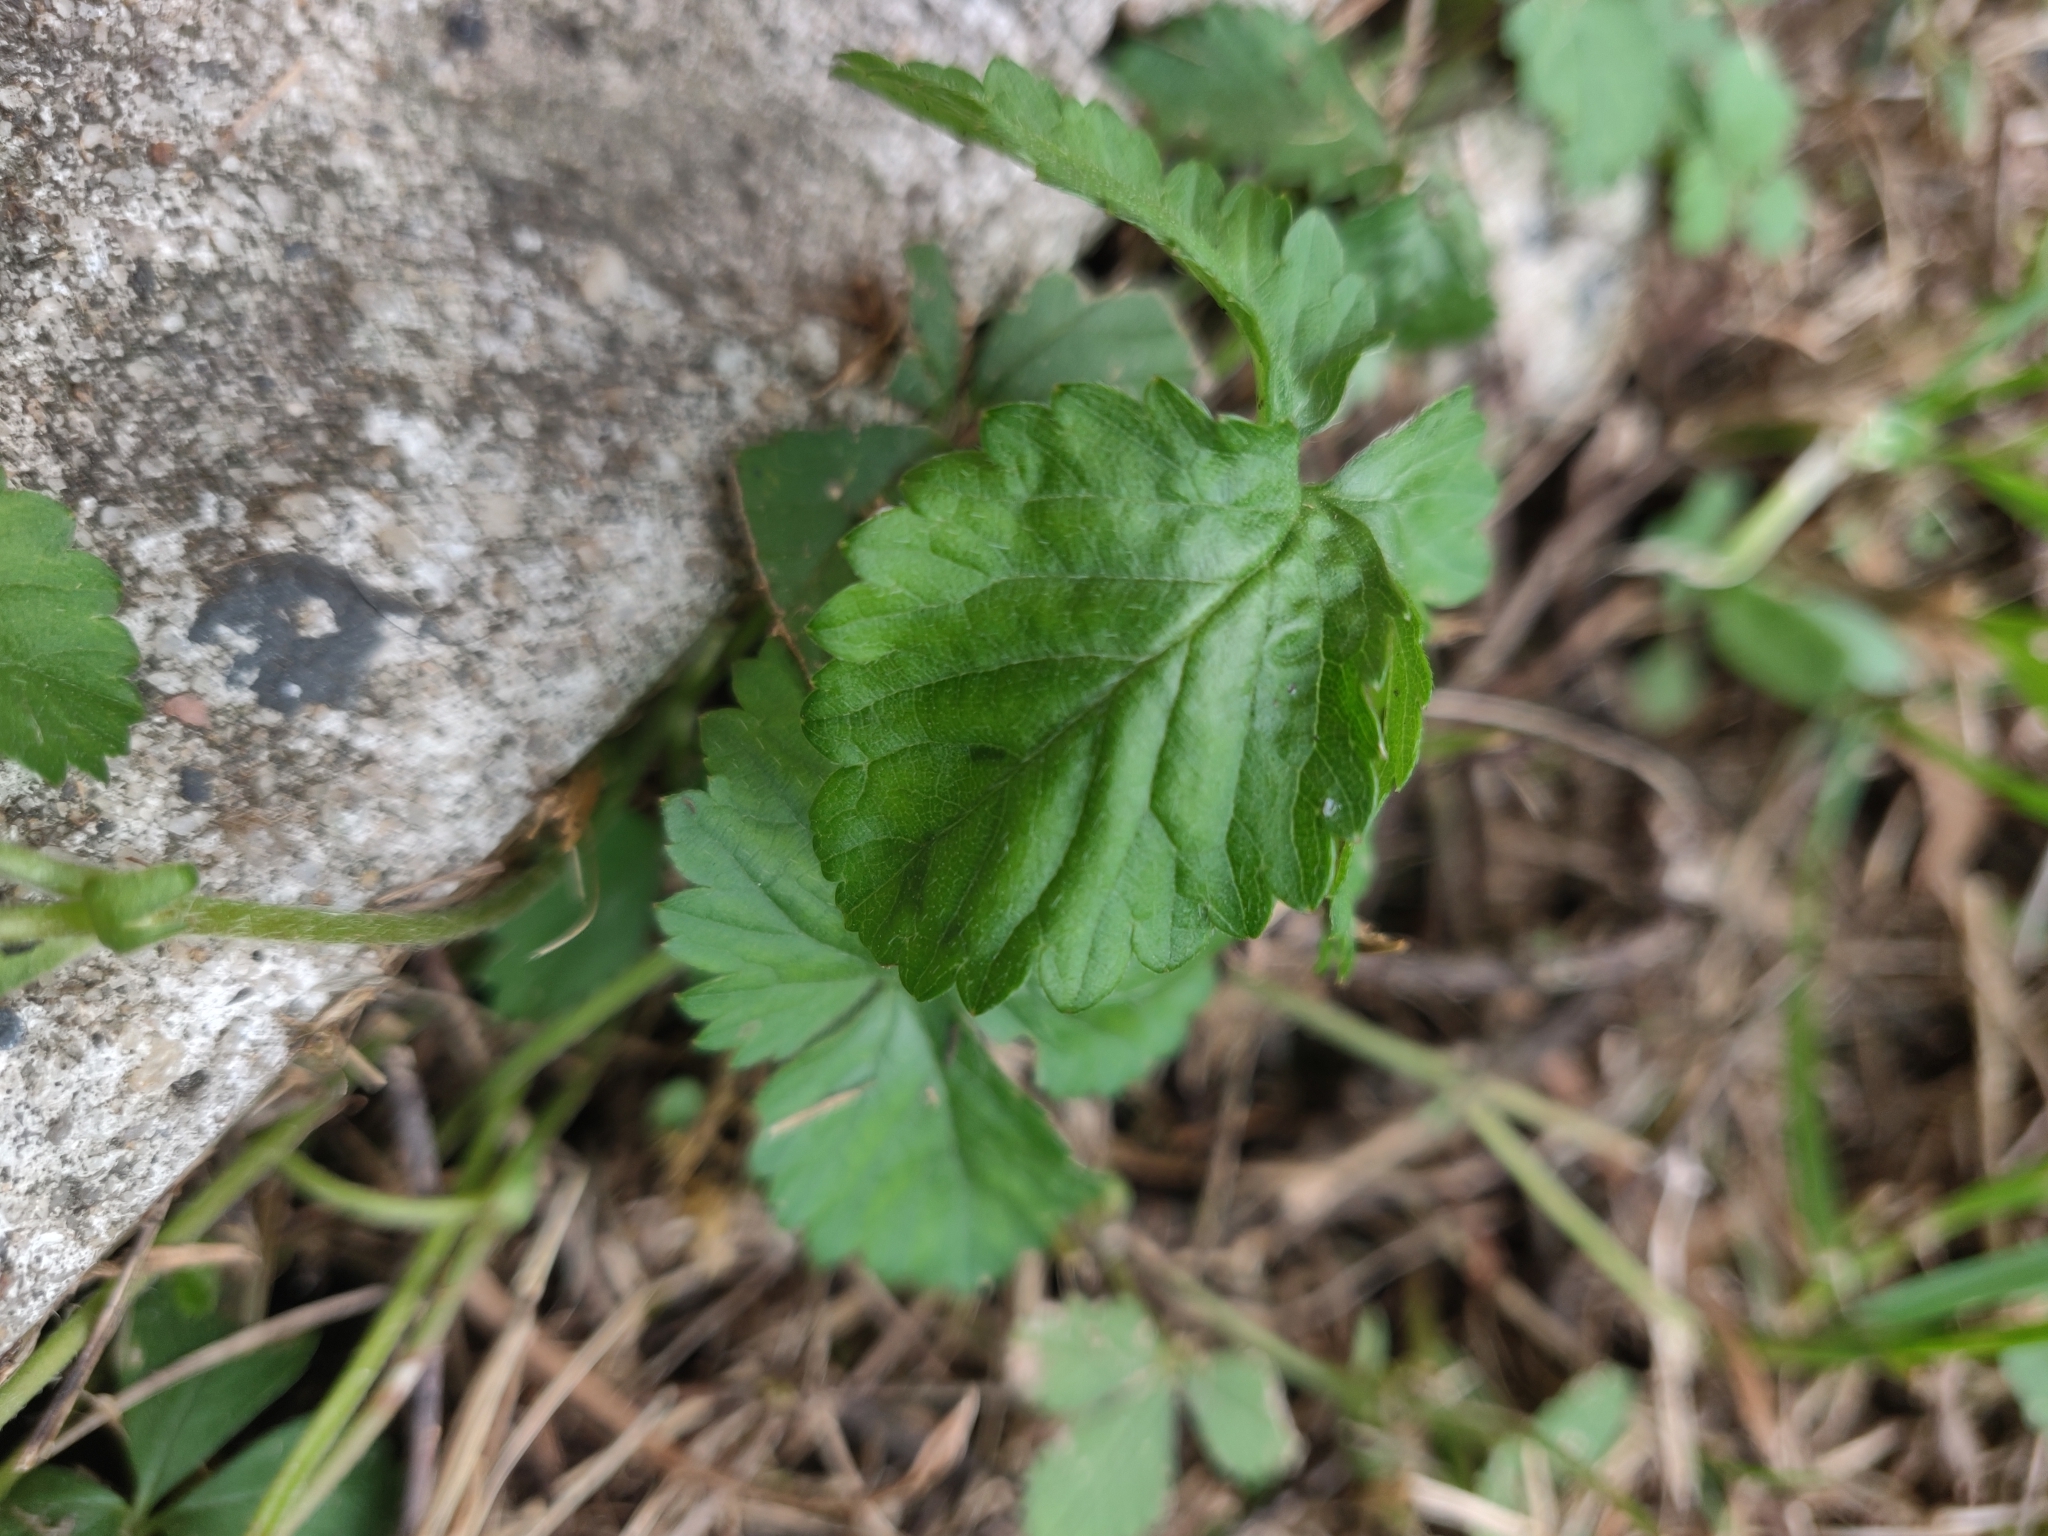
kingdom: Plantae
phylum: Tracheophyta
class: Magnoliopsida
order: Malvales
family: Malvaceae
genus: Malvastrum
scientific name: Malvastrum
